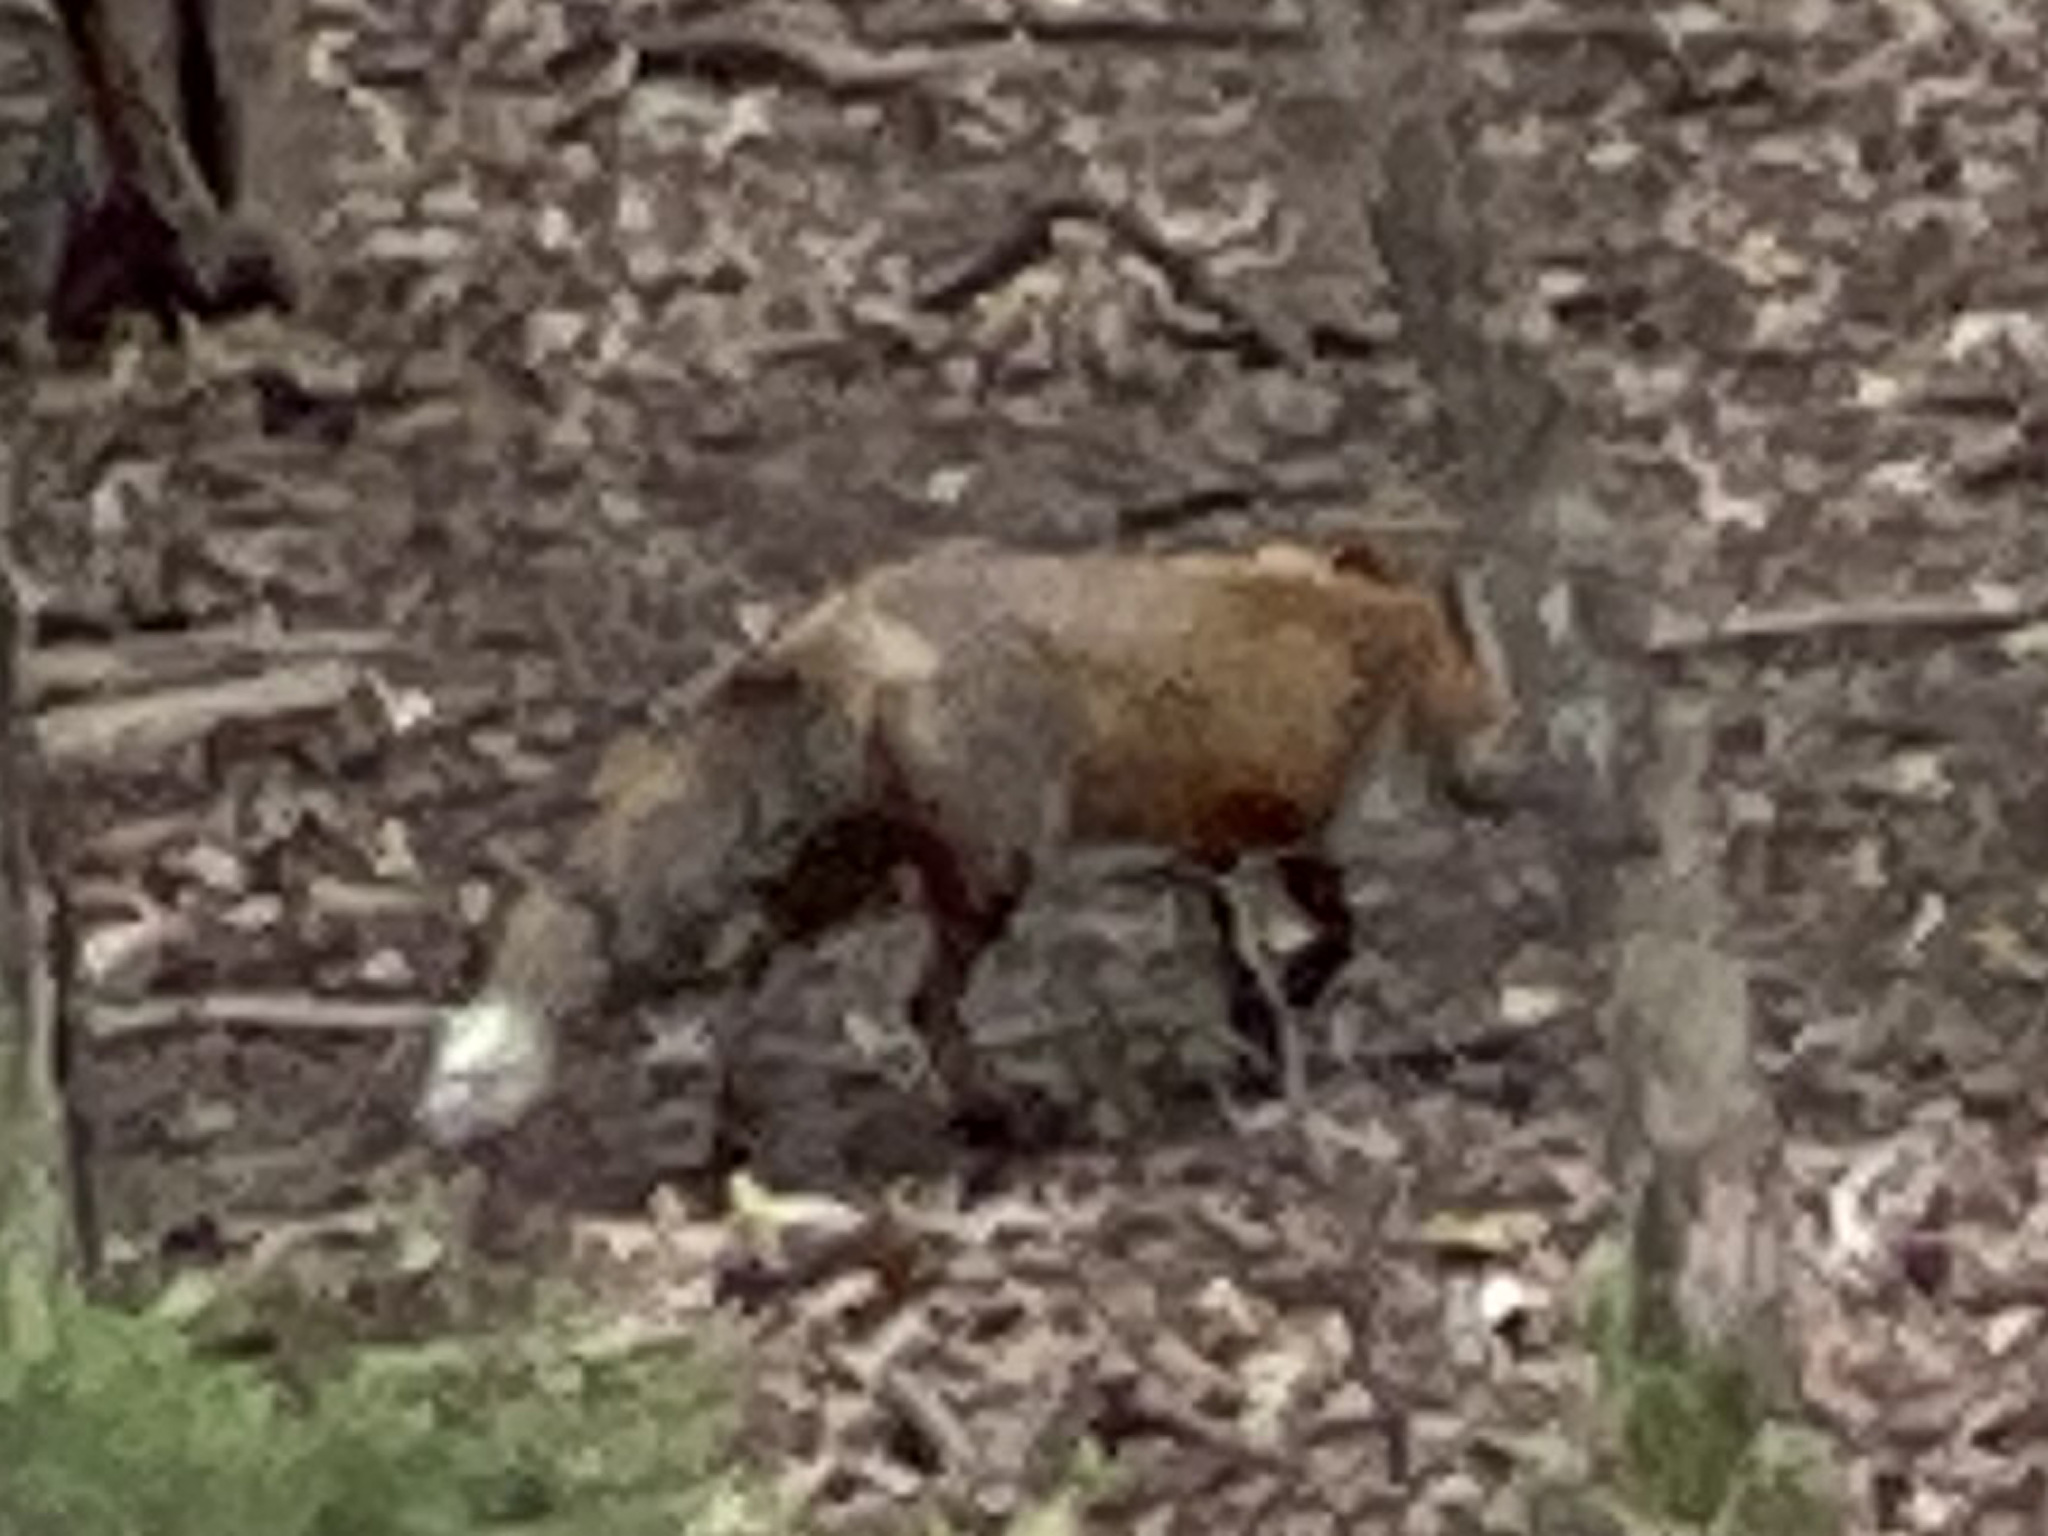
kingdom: Animalia
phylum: Chordata
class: Mammalia
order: Carnivora
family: Canidae
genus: Vulpes
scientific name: Vulpes vulpes
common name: Red fox
